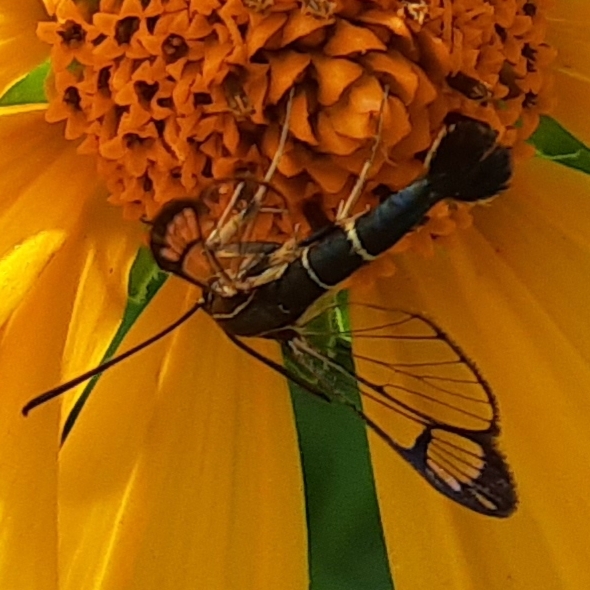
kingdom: Animalia
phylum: Arthropoda
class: Insecta
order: Lepidoptera
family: Sesiidae
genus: Carmenta
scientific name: Carmenta ithacae
